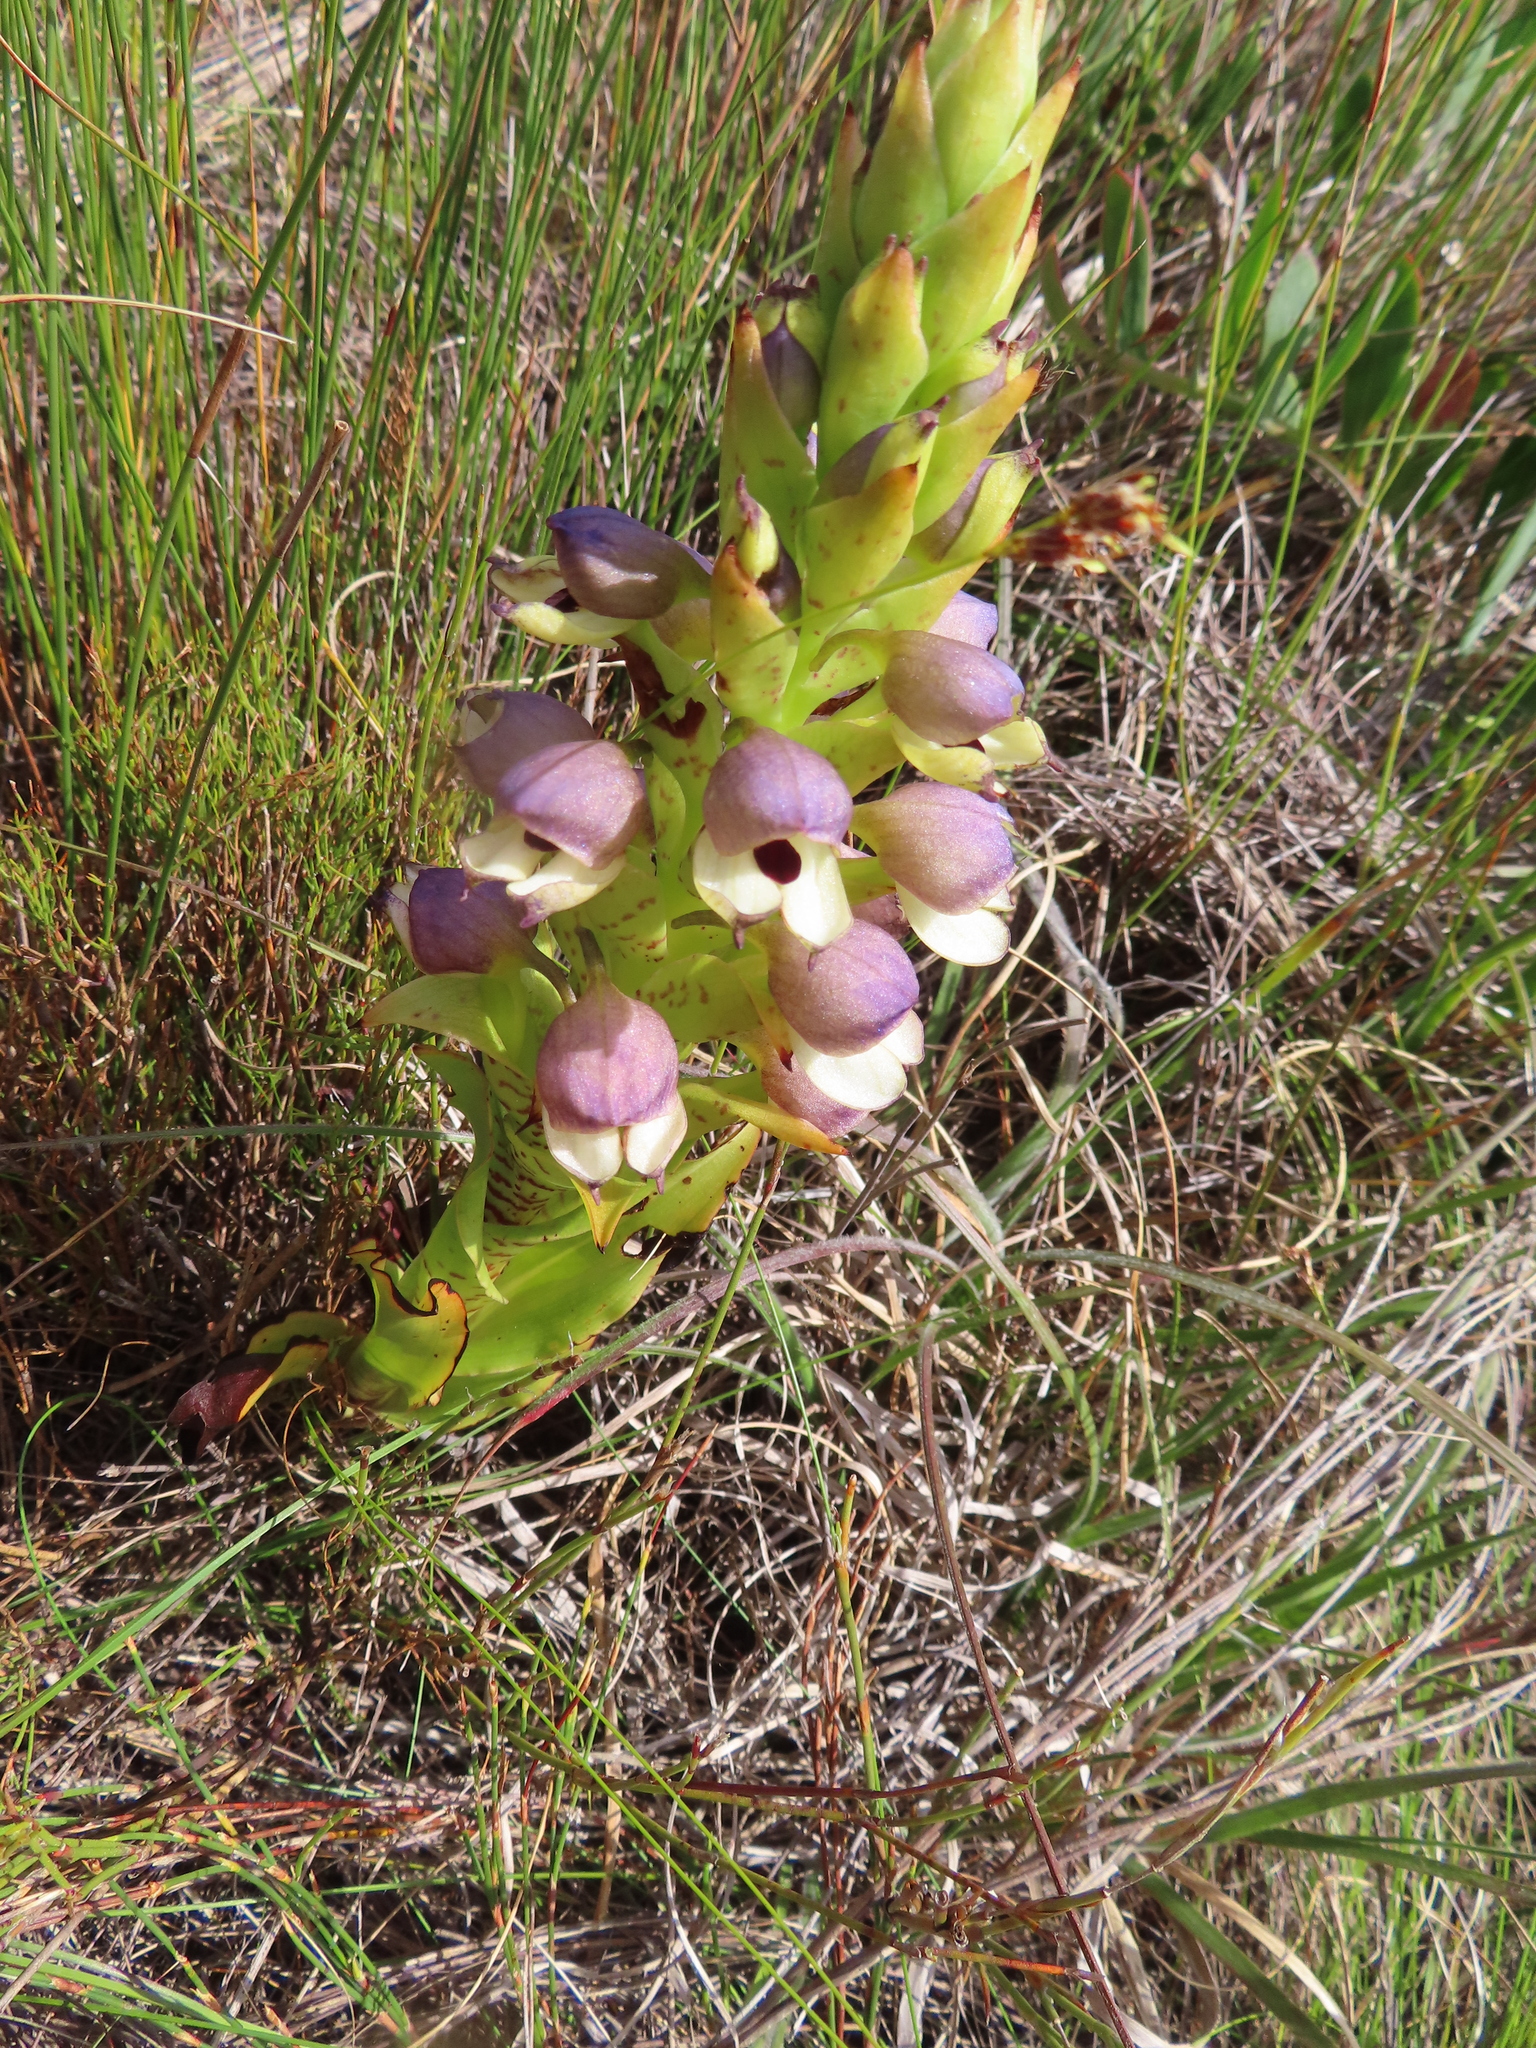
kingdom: Plantae
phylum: Tracheophyta
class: Liliopsida
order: Asparagales
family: Orchidaceae
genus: Disa
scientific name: Disa cornuta
